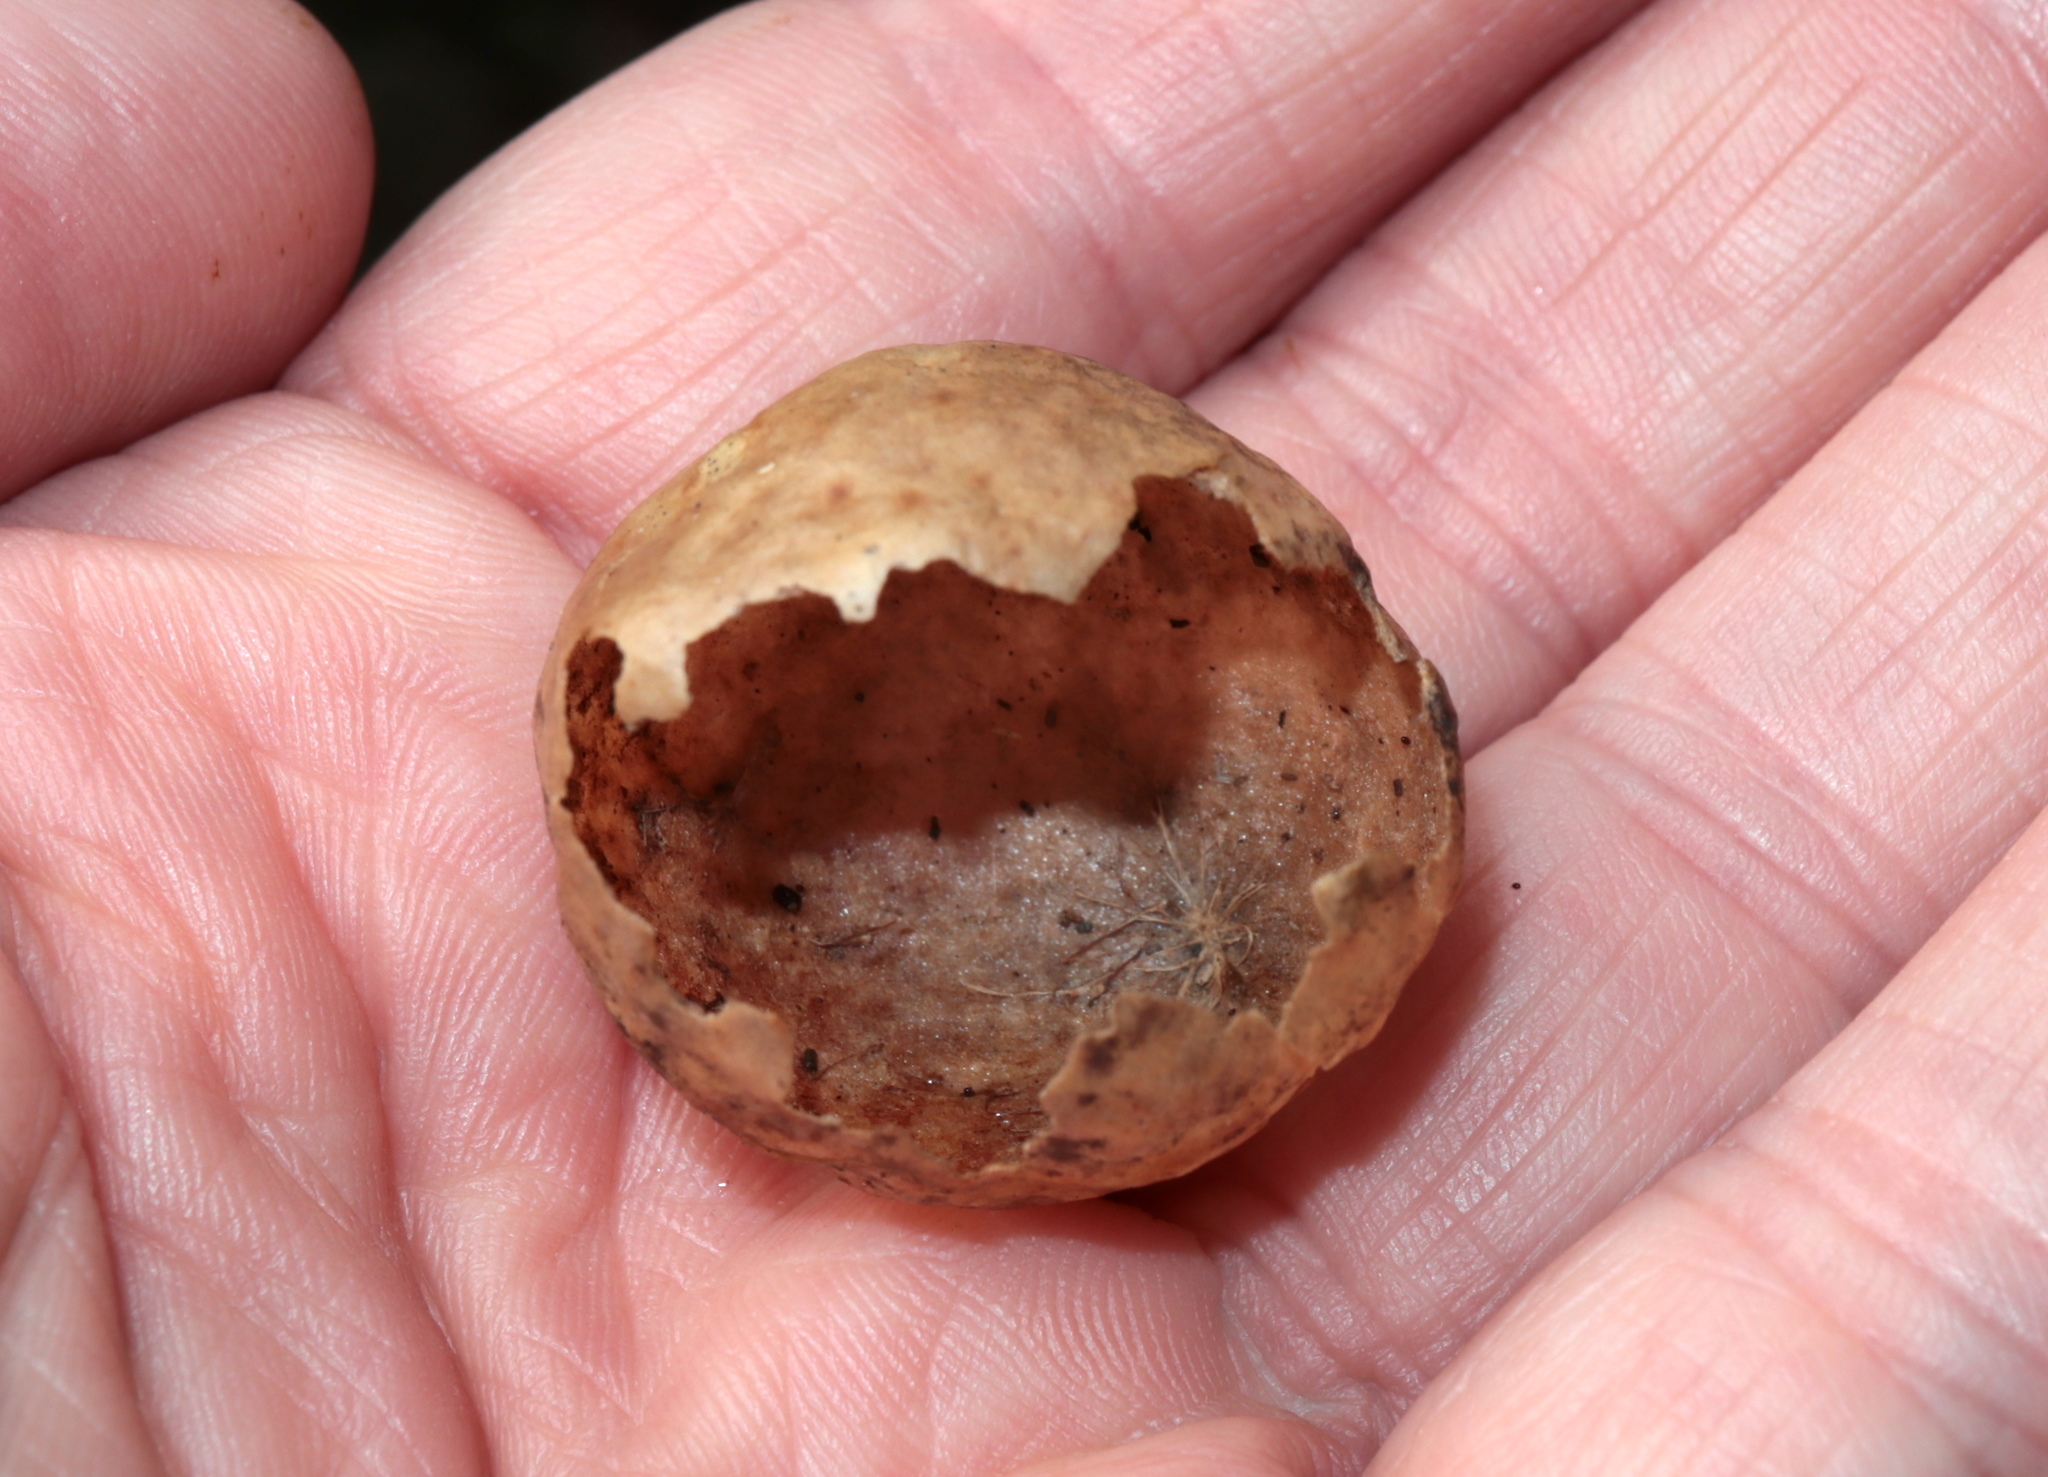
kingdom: Animalia
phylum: Arthropoda
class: Insecta
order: Hymenoptera
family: Cynipidae
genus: Amphibolips
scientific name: Amphibolips
